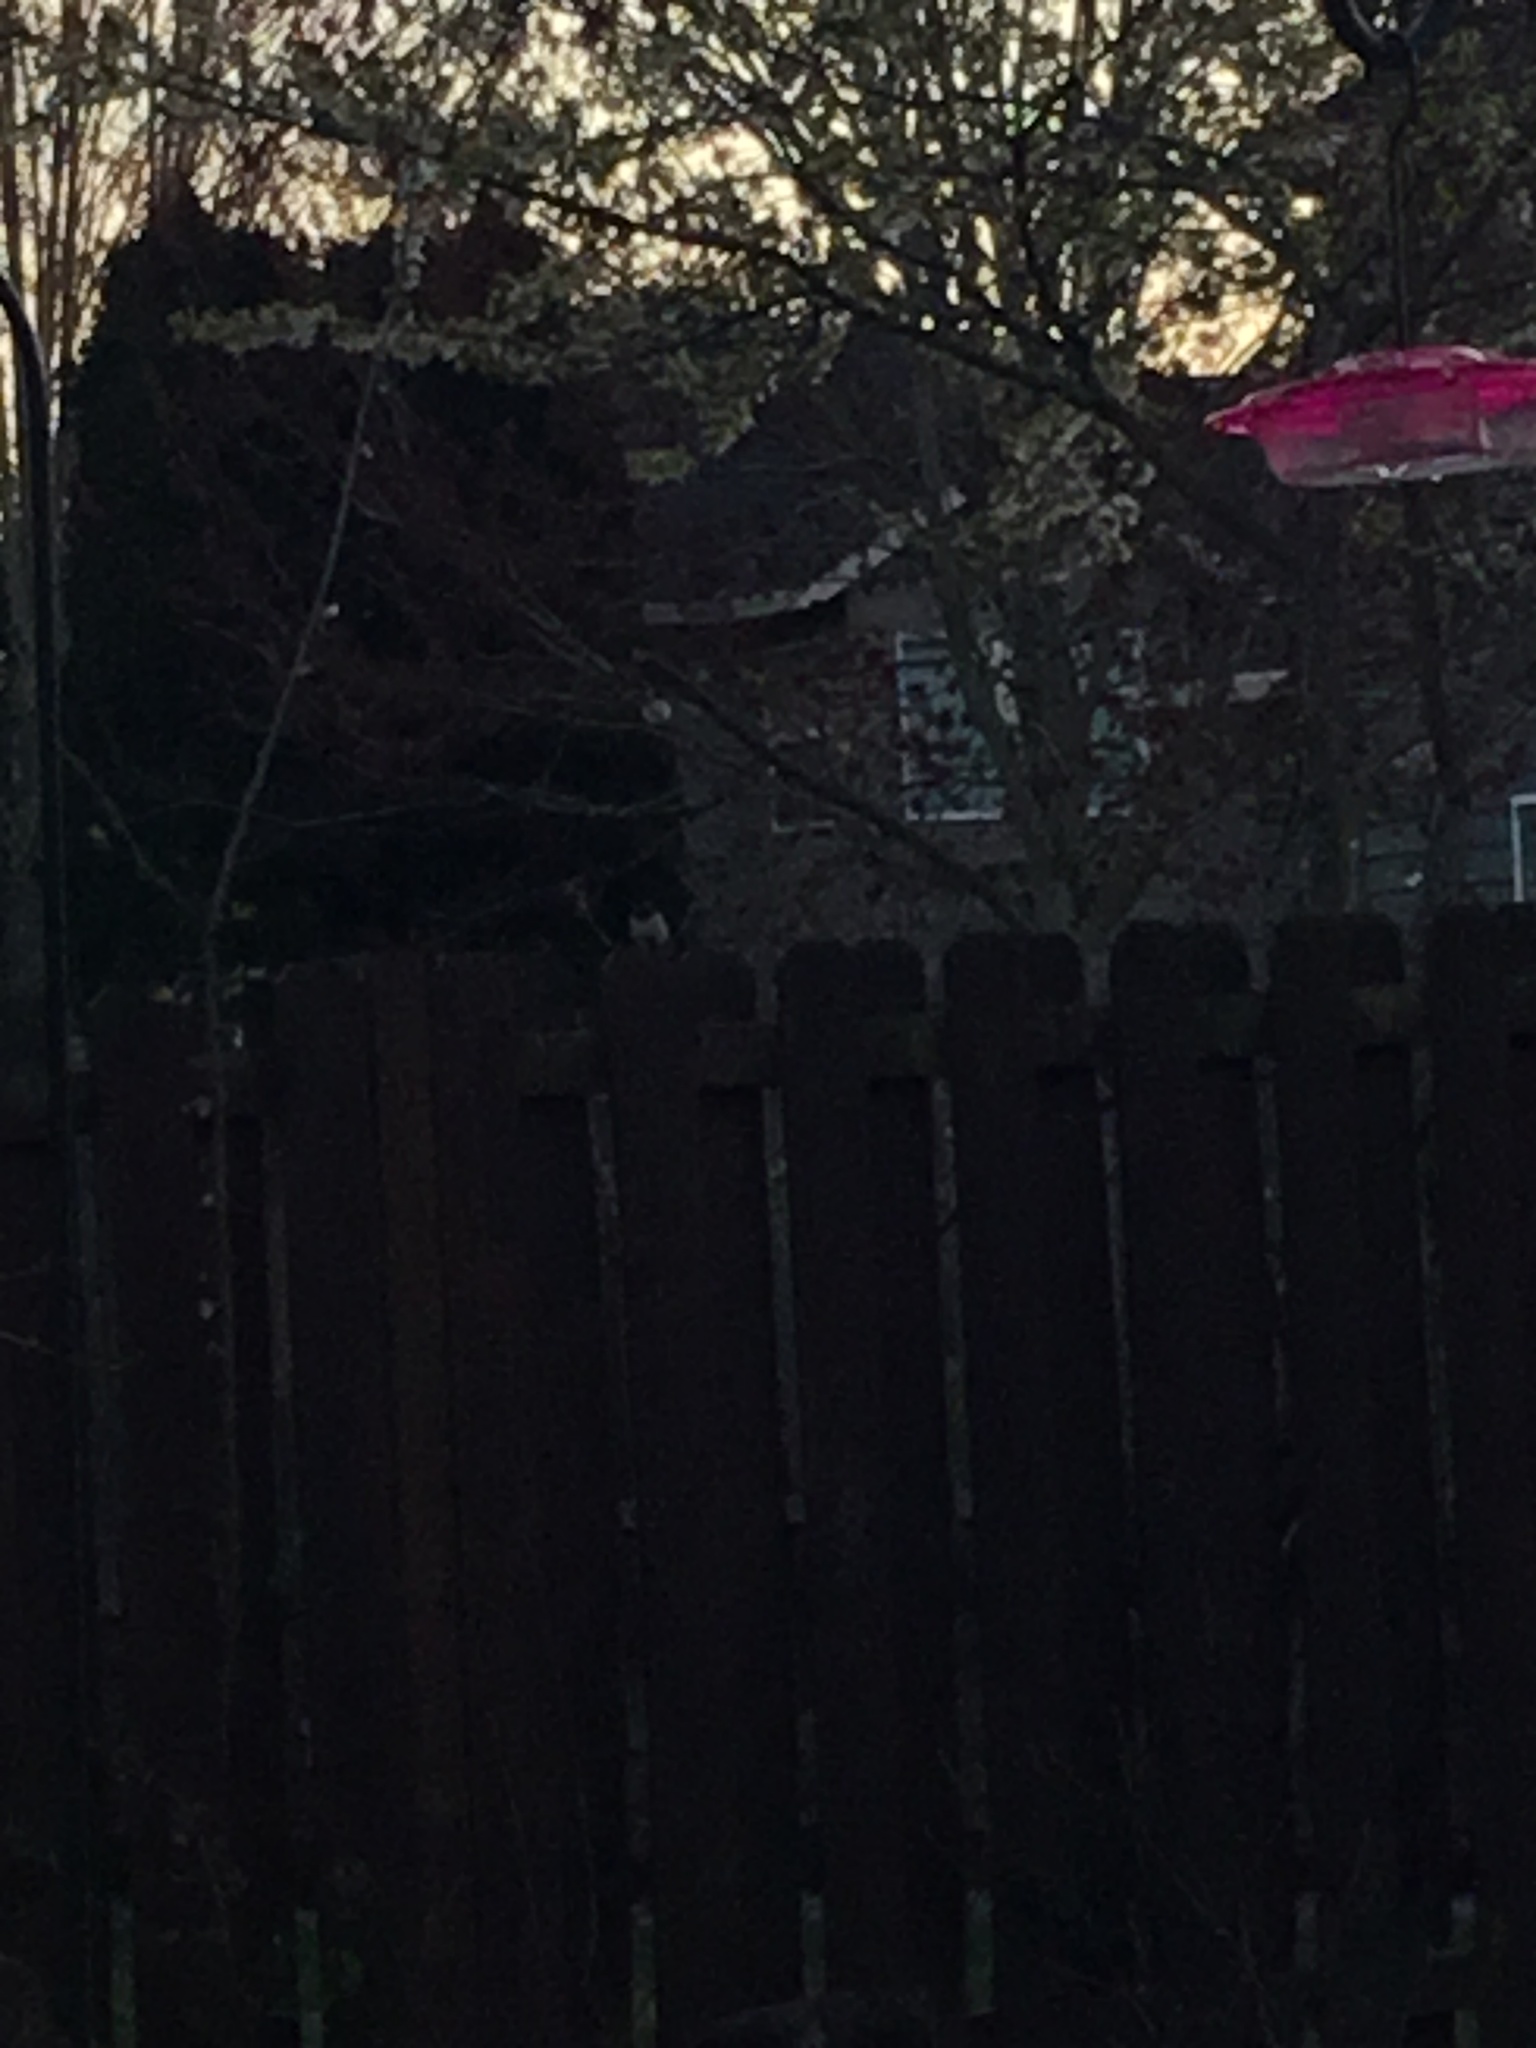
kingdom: Animalia
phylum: Chordata
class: Aves
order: Passeriformes
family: Passerellidae
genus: Junco
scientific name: Junco hyemalis
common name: Dark-eyed junco
